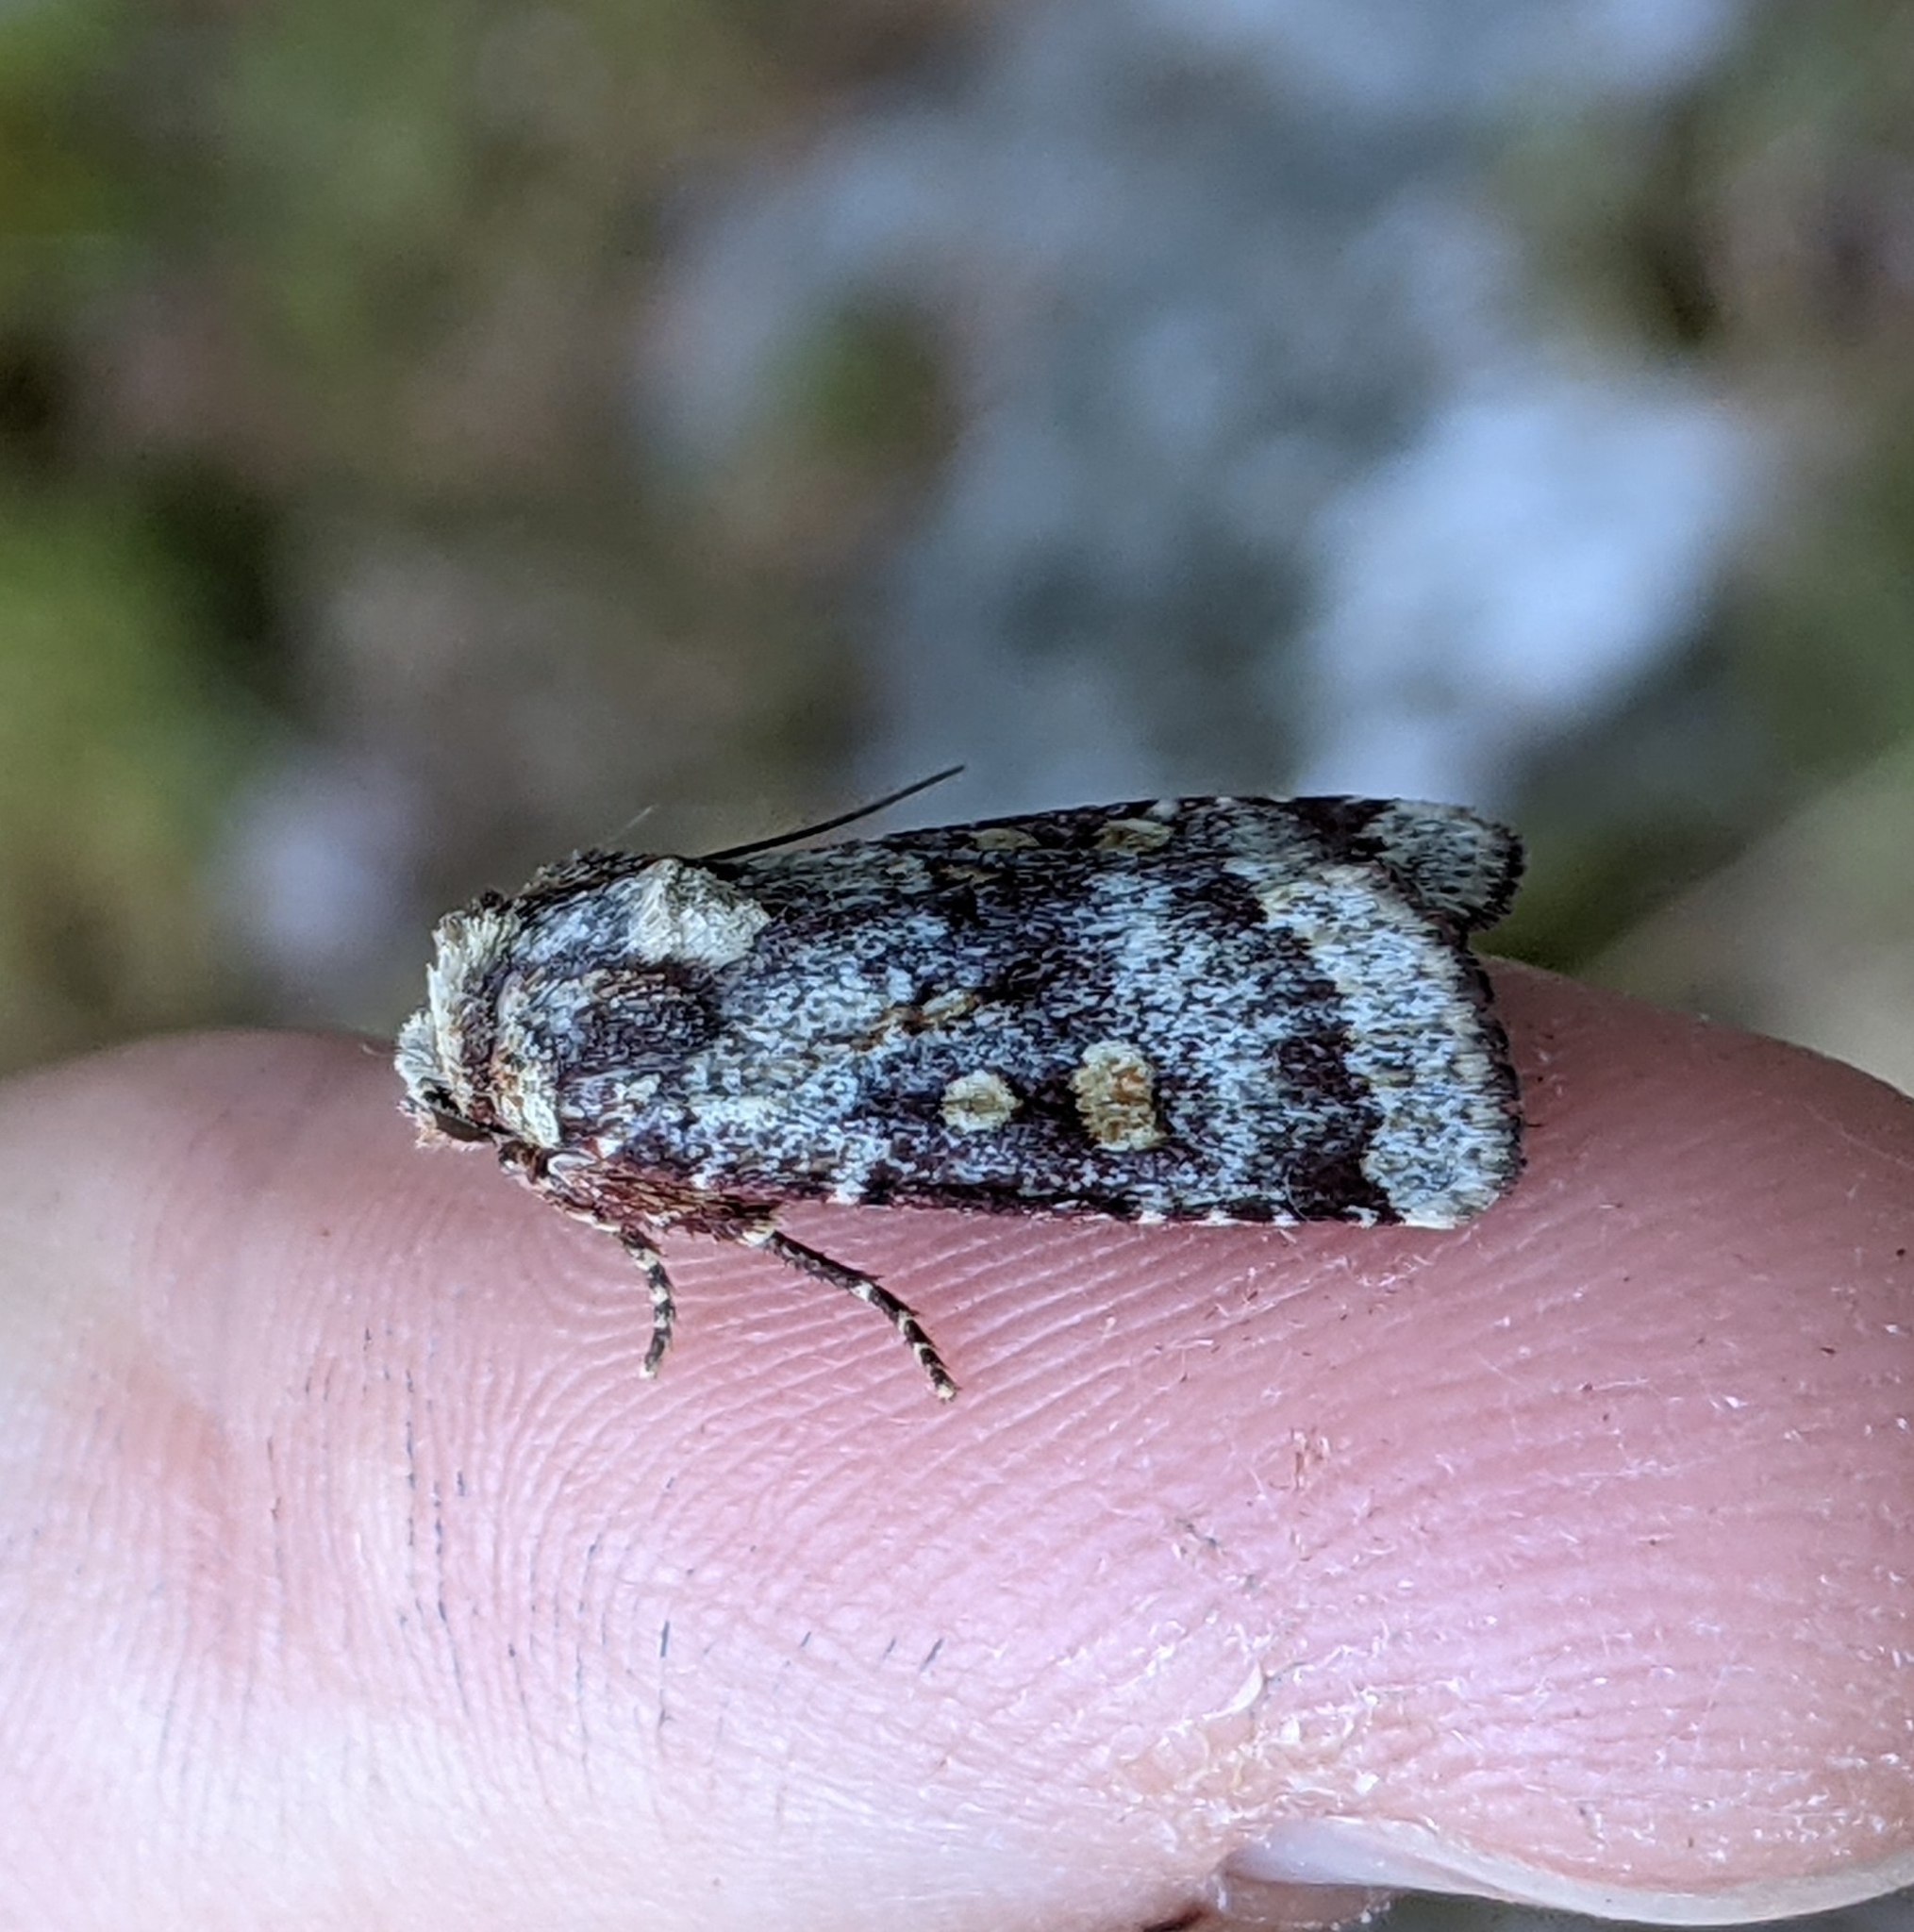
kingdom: Animalia
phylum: Arthropoda
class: Insecta
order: Lepidoptera
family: Noctuidae
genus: Abagrotis
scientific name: Abagrotis pulchrata
